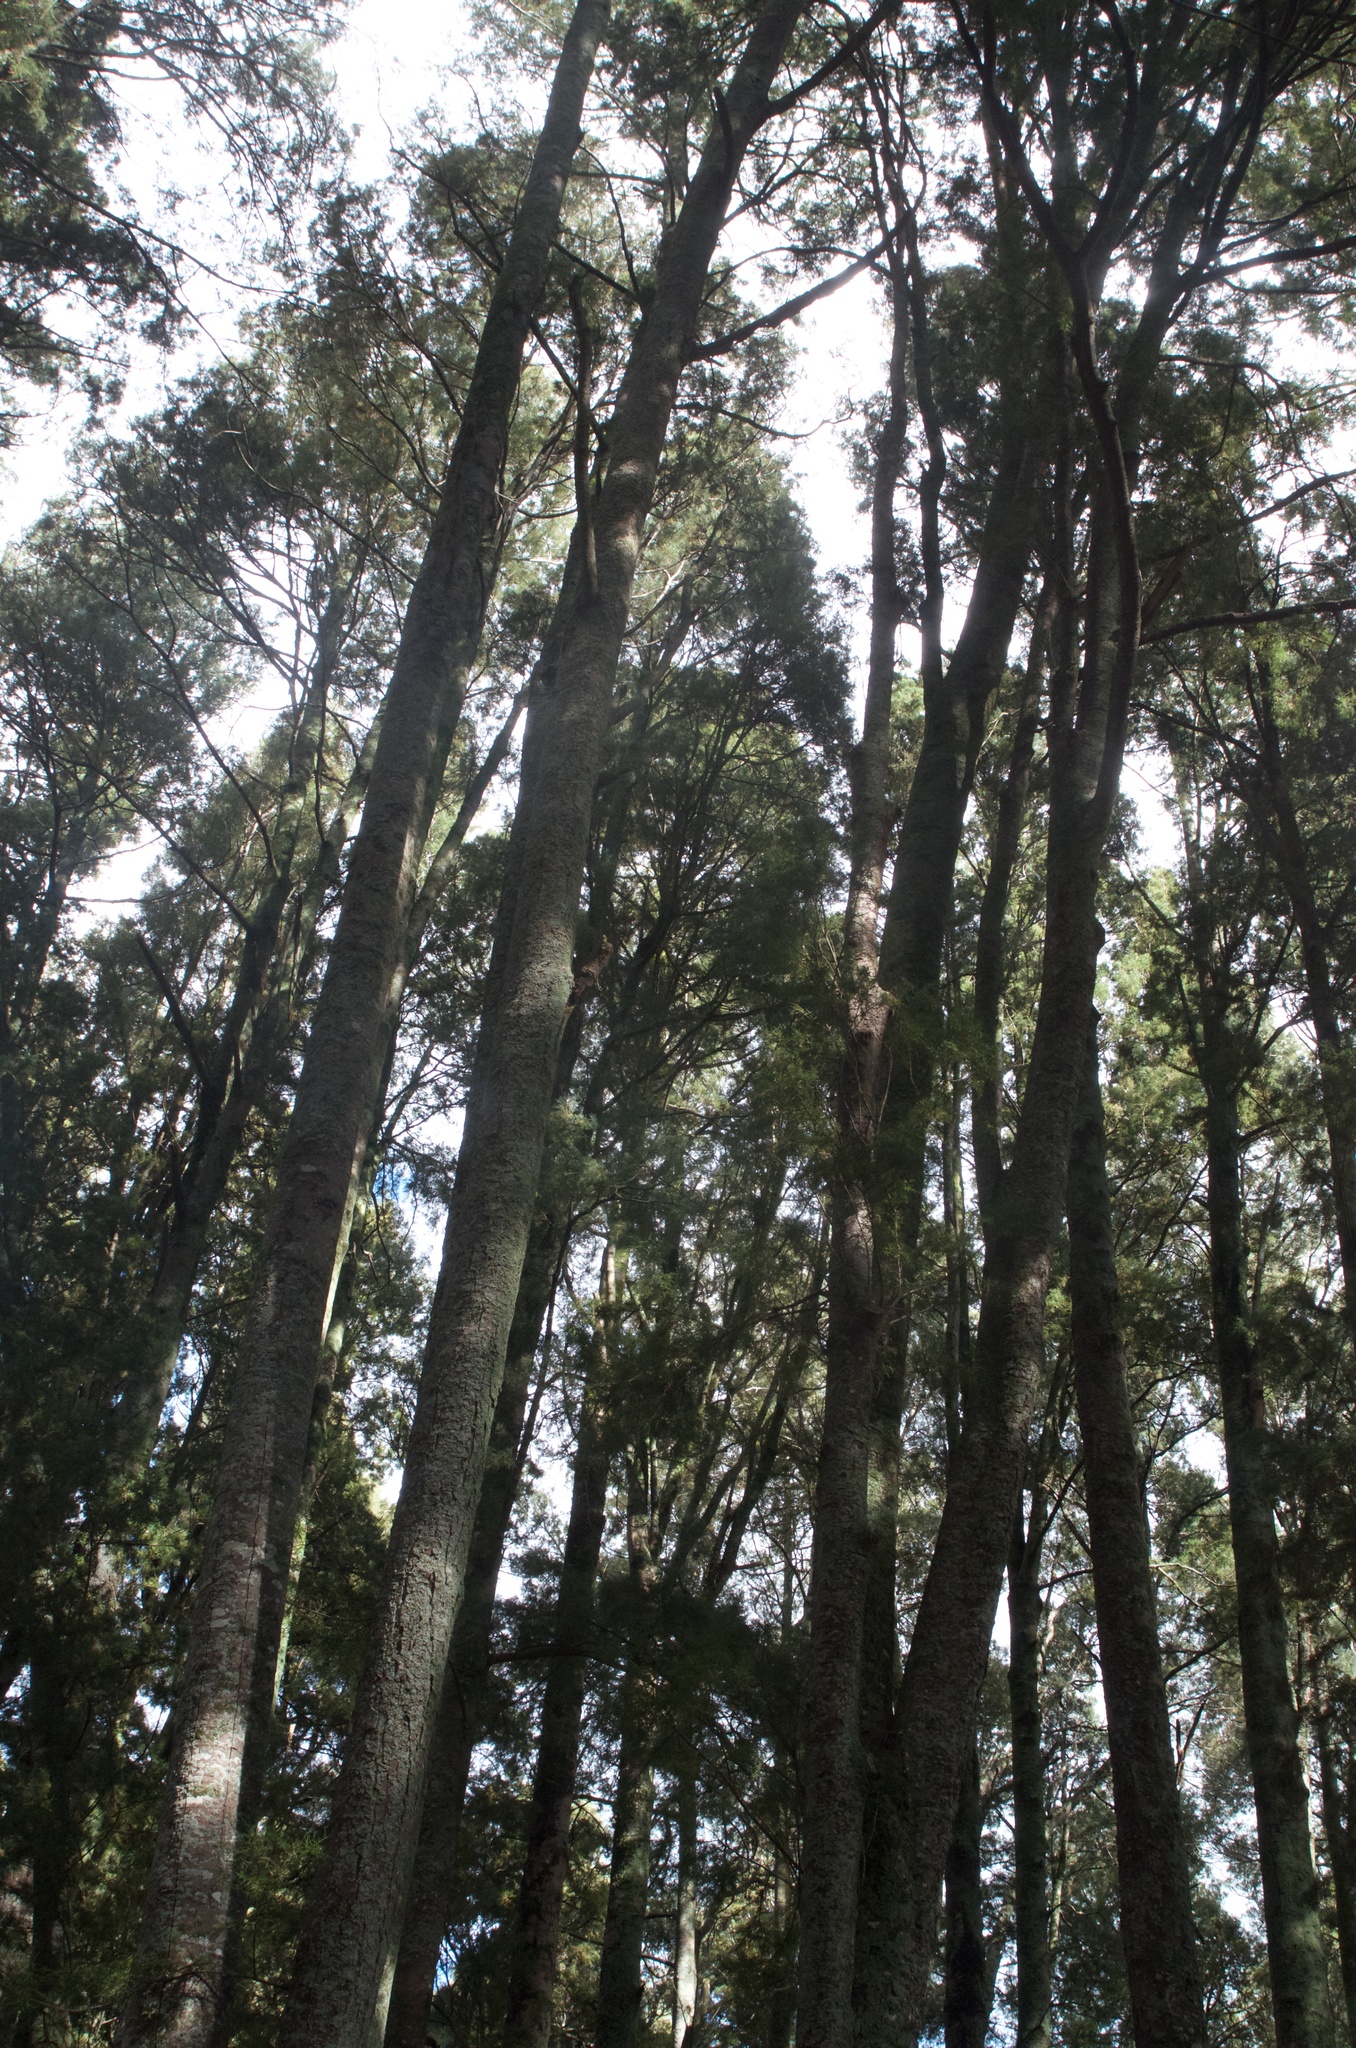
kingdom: Plantae
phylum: Tracheophyta
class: Pinopsida
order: Pinales
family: Podocarpaceae
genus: Dacrycarpus
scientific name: Dacrycarpus dacrydioides
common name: White pine
